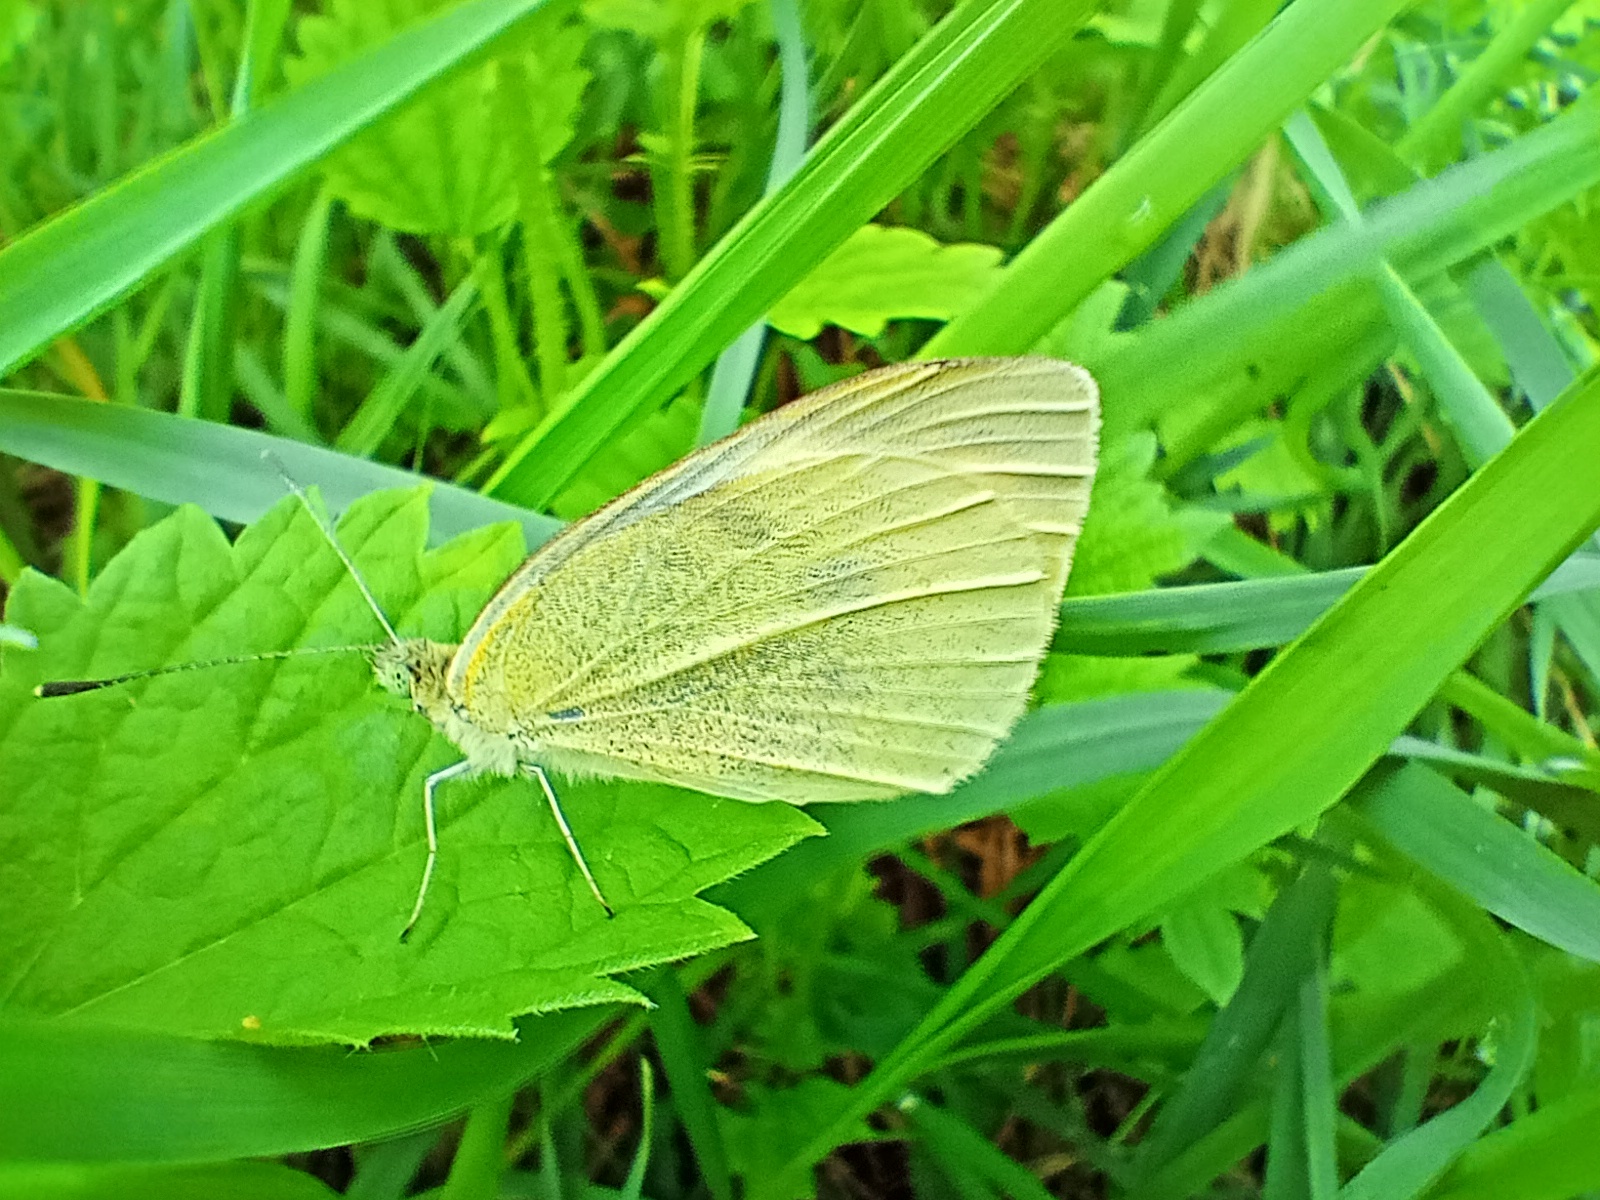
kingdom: Animalia
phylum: Arthropoda
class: Insecta
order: Lepidoptera
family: Pieridae
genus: Pieris
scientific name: Pieris rapae
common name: Small white
